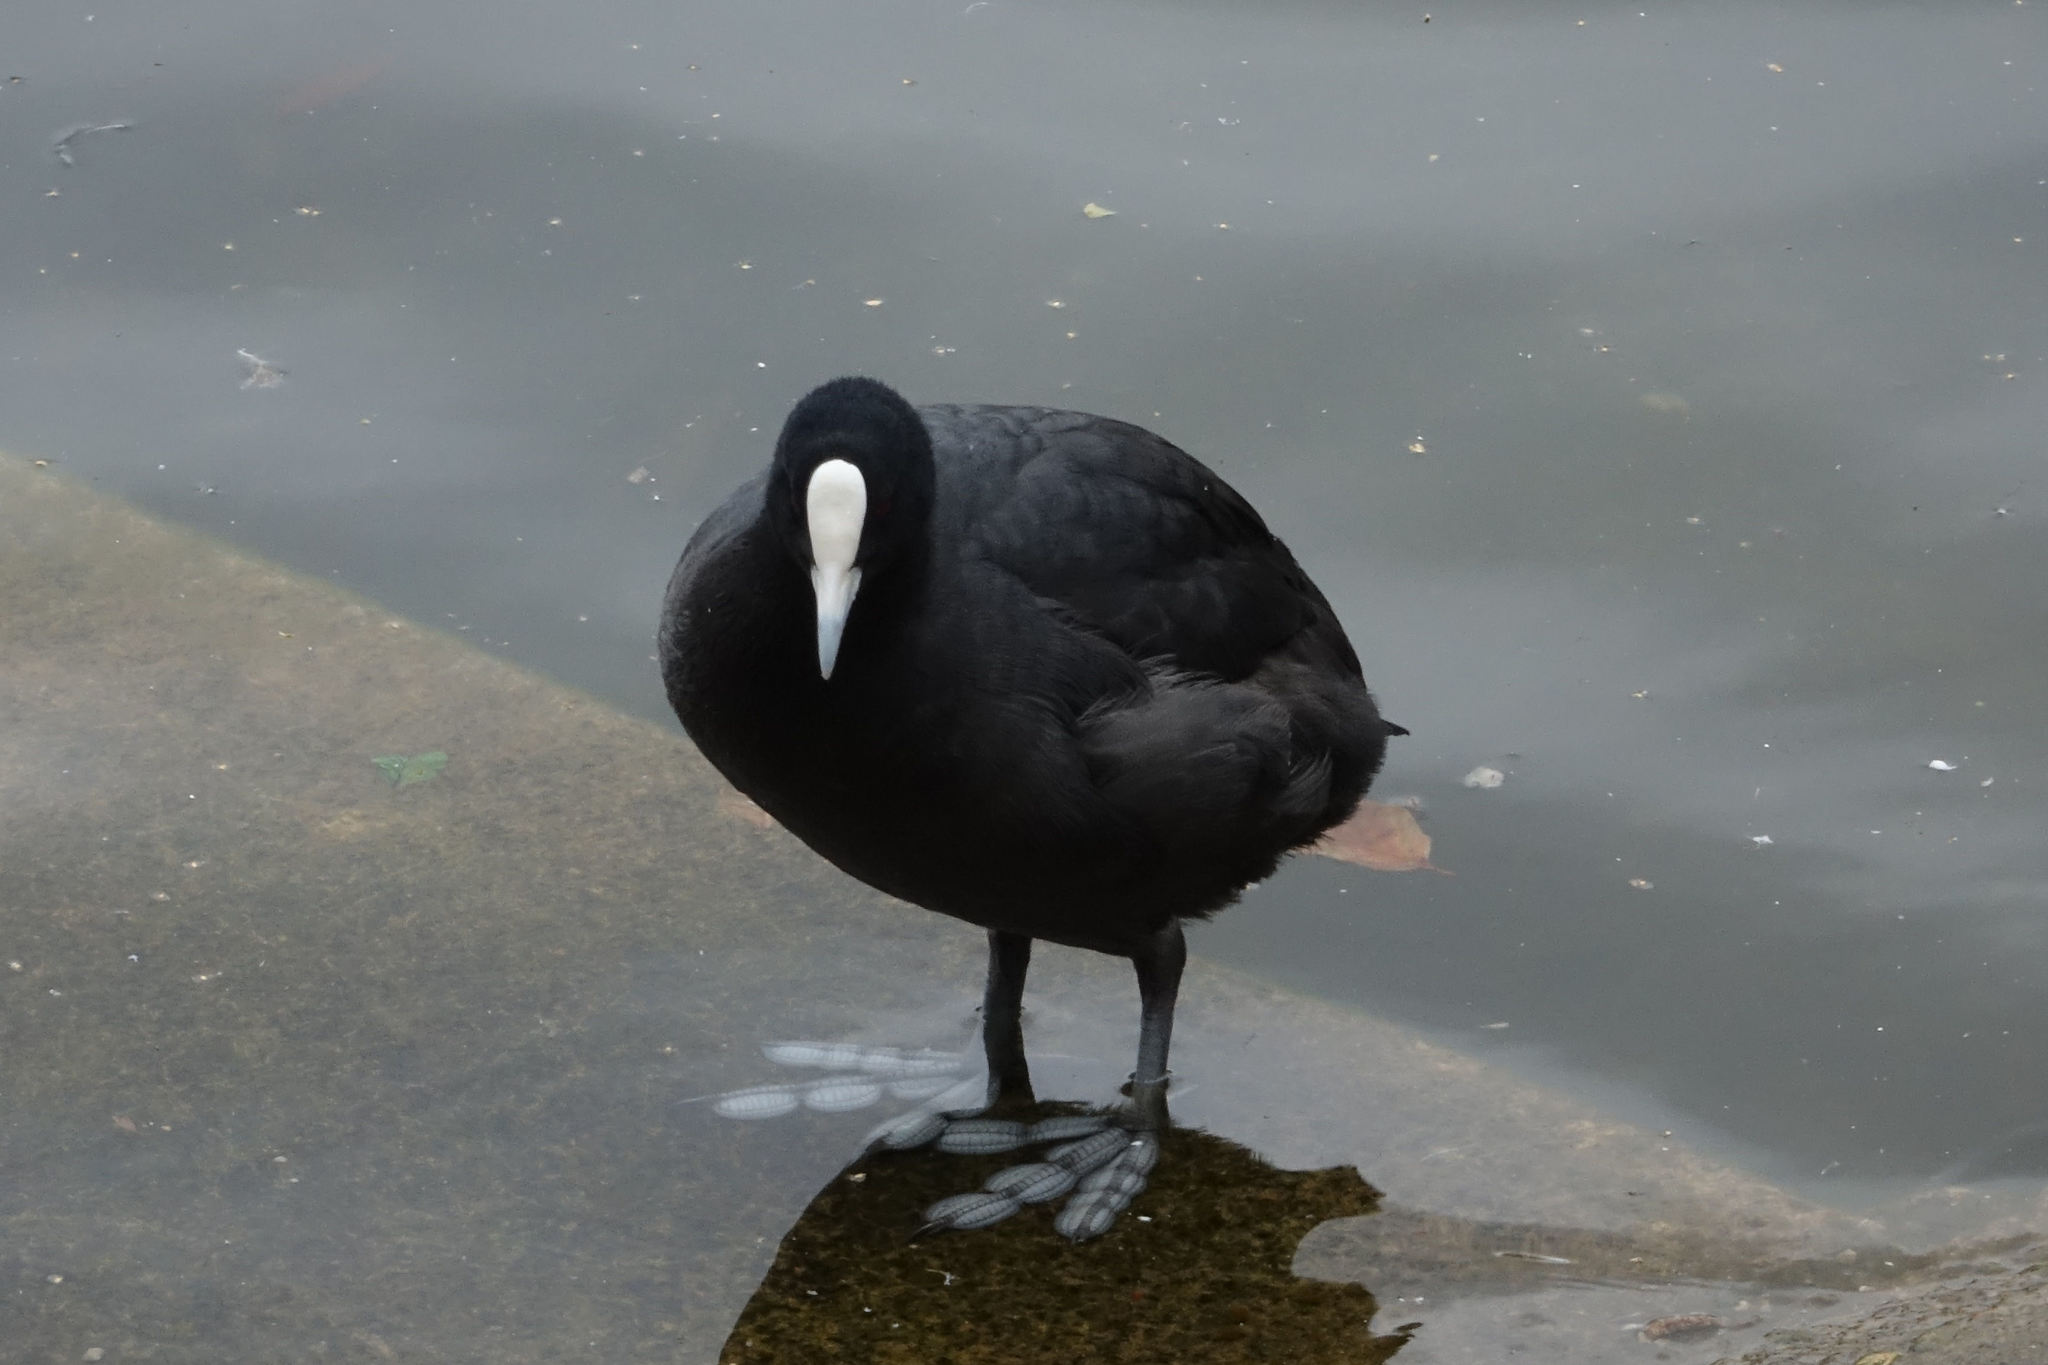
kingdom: Animalia
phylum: Chordata
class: Aves
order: Gruiformes
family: Rallidae
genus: Fulica
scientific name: Fulica atra
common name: Eurasian coot
